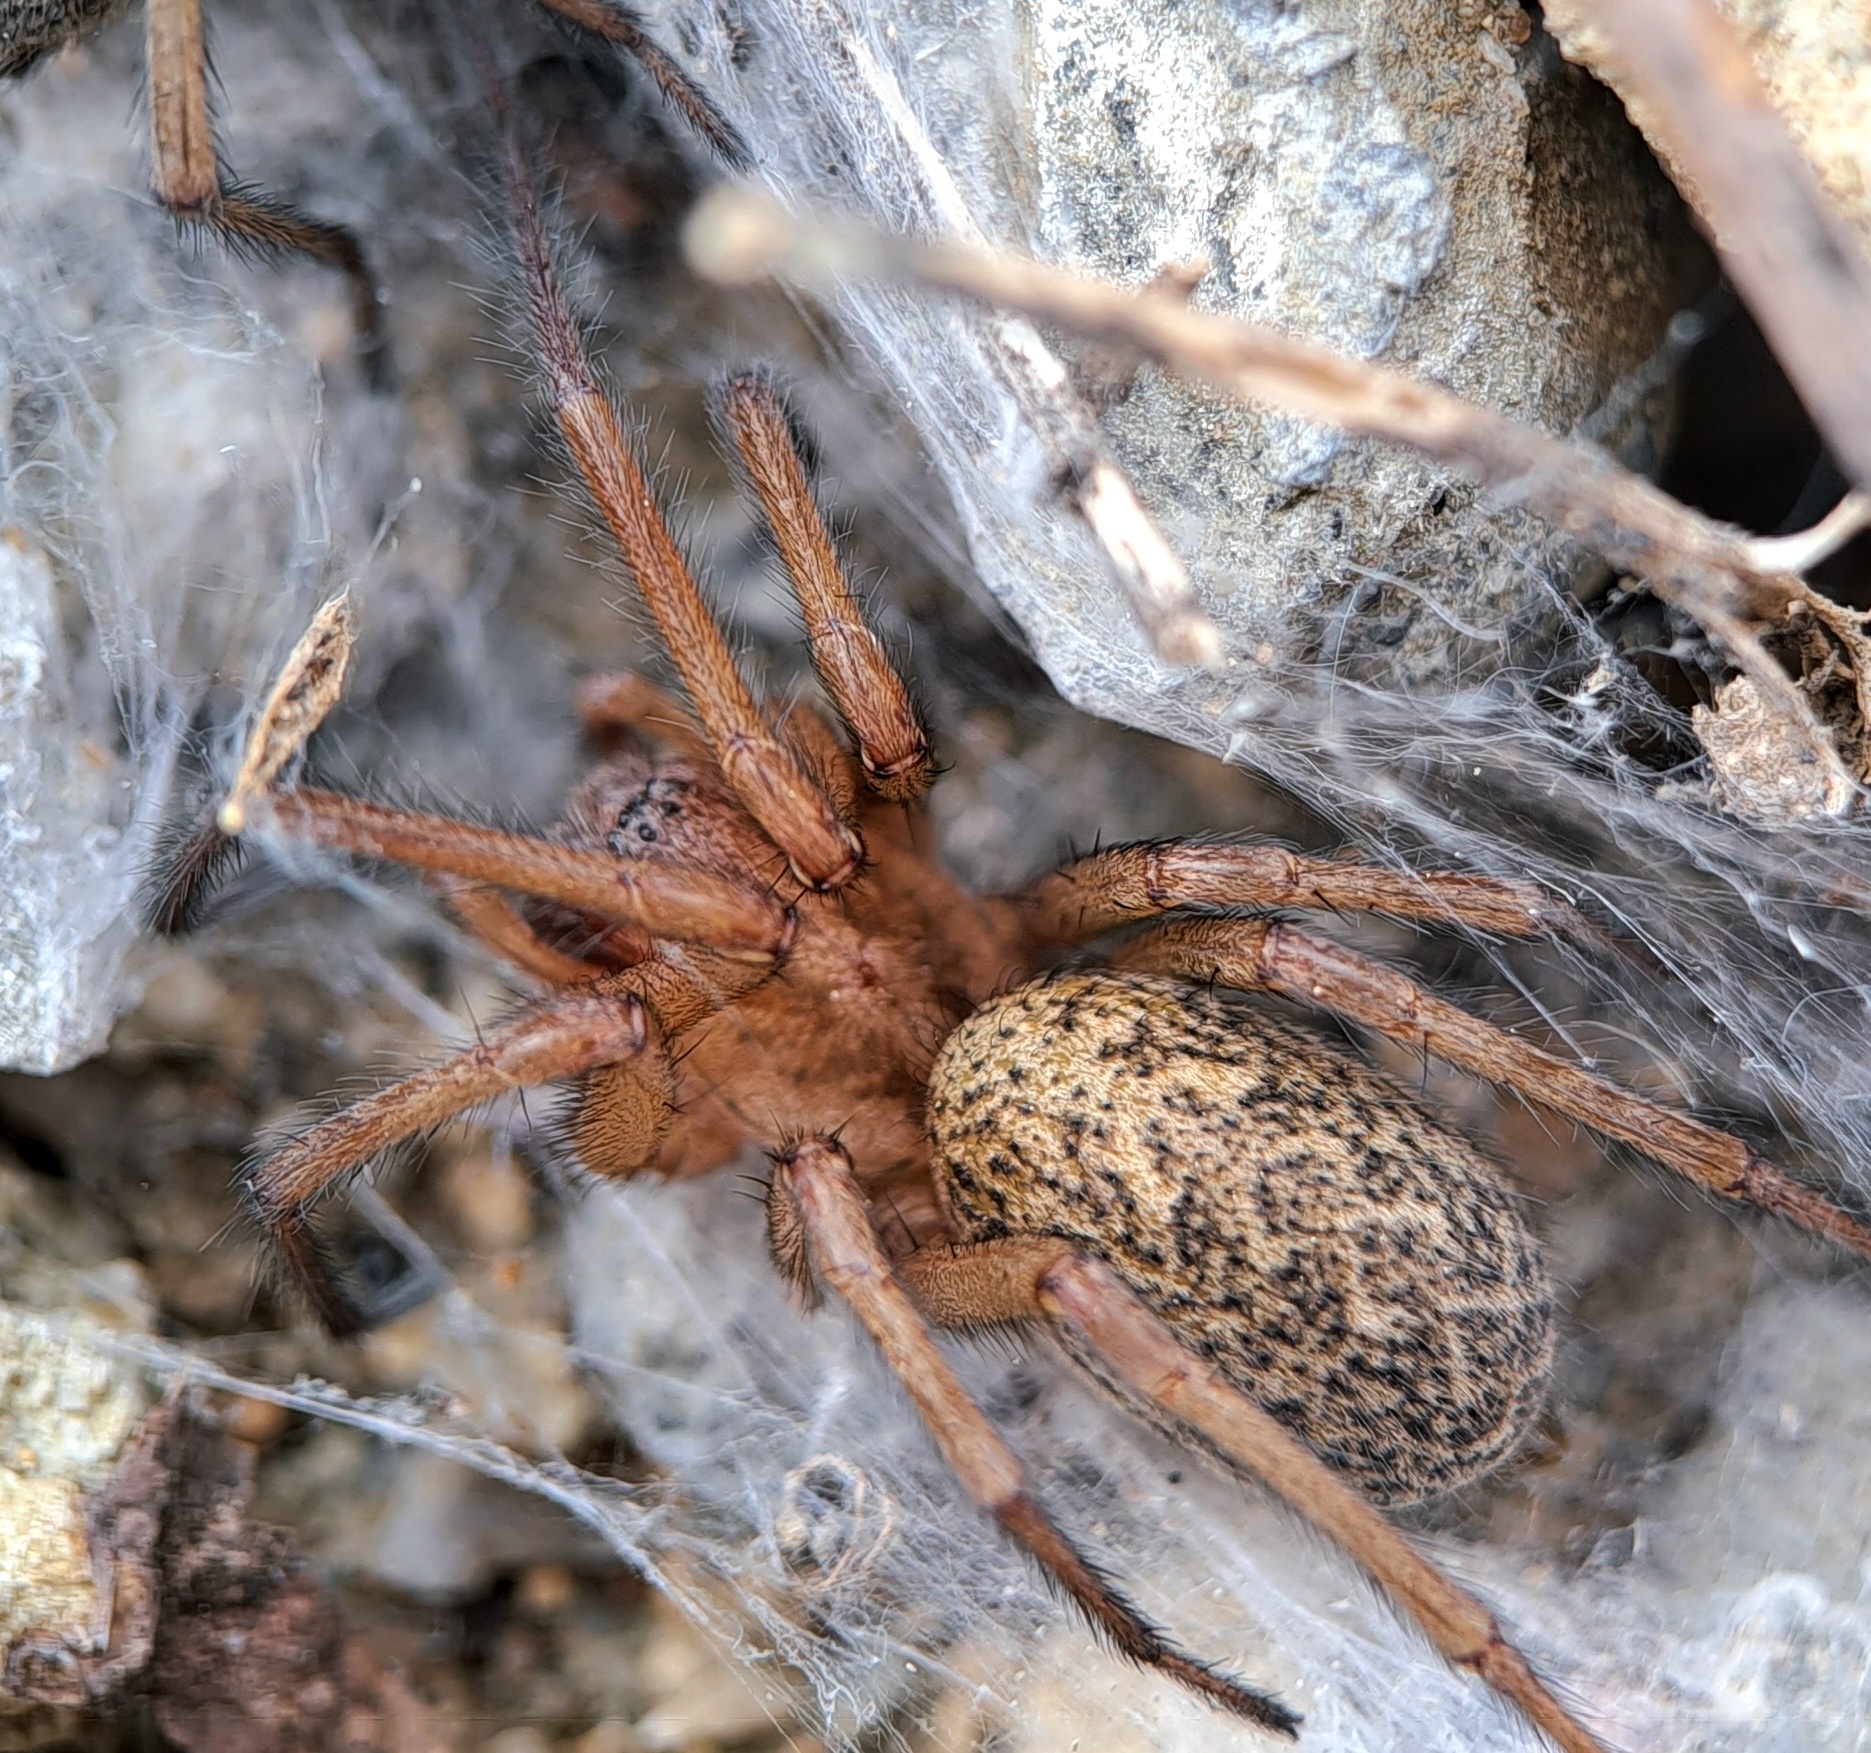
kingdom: Animalia
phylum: Arthropoda
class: Arachnida
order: Araneae
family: Agelenidae
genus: Eratigena
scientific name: Eratigena agrestis
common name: Hobo spider
